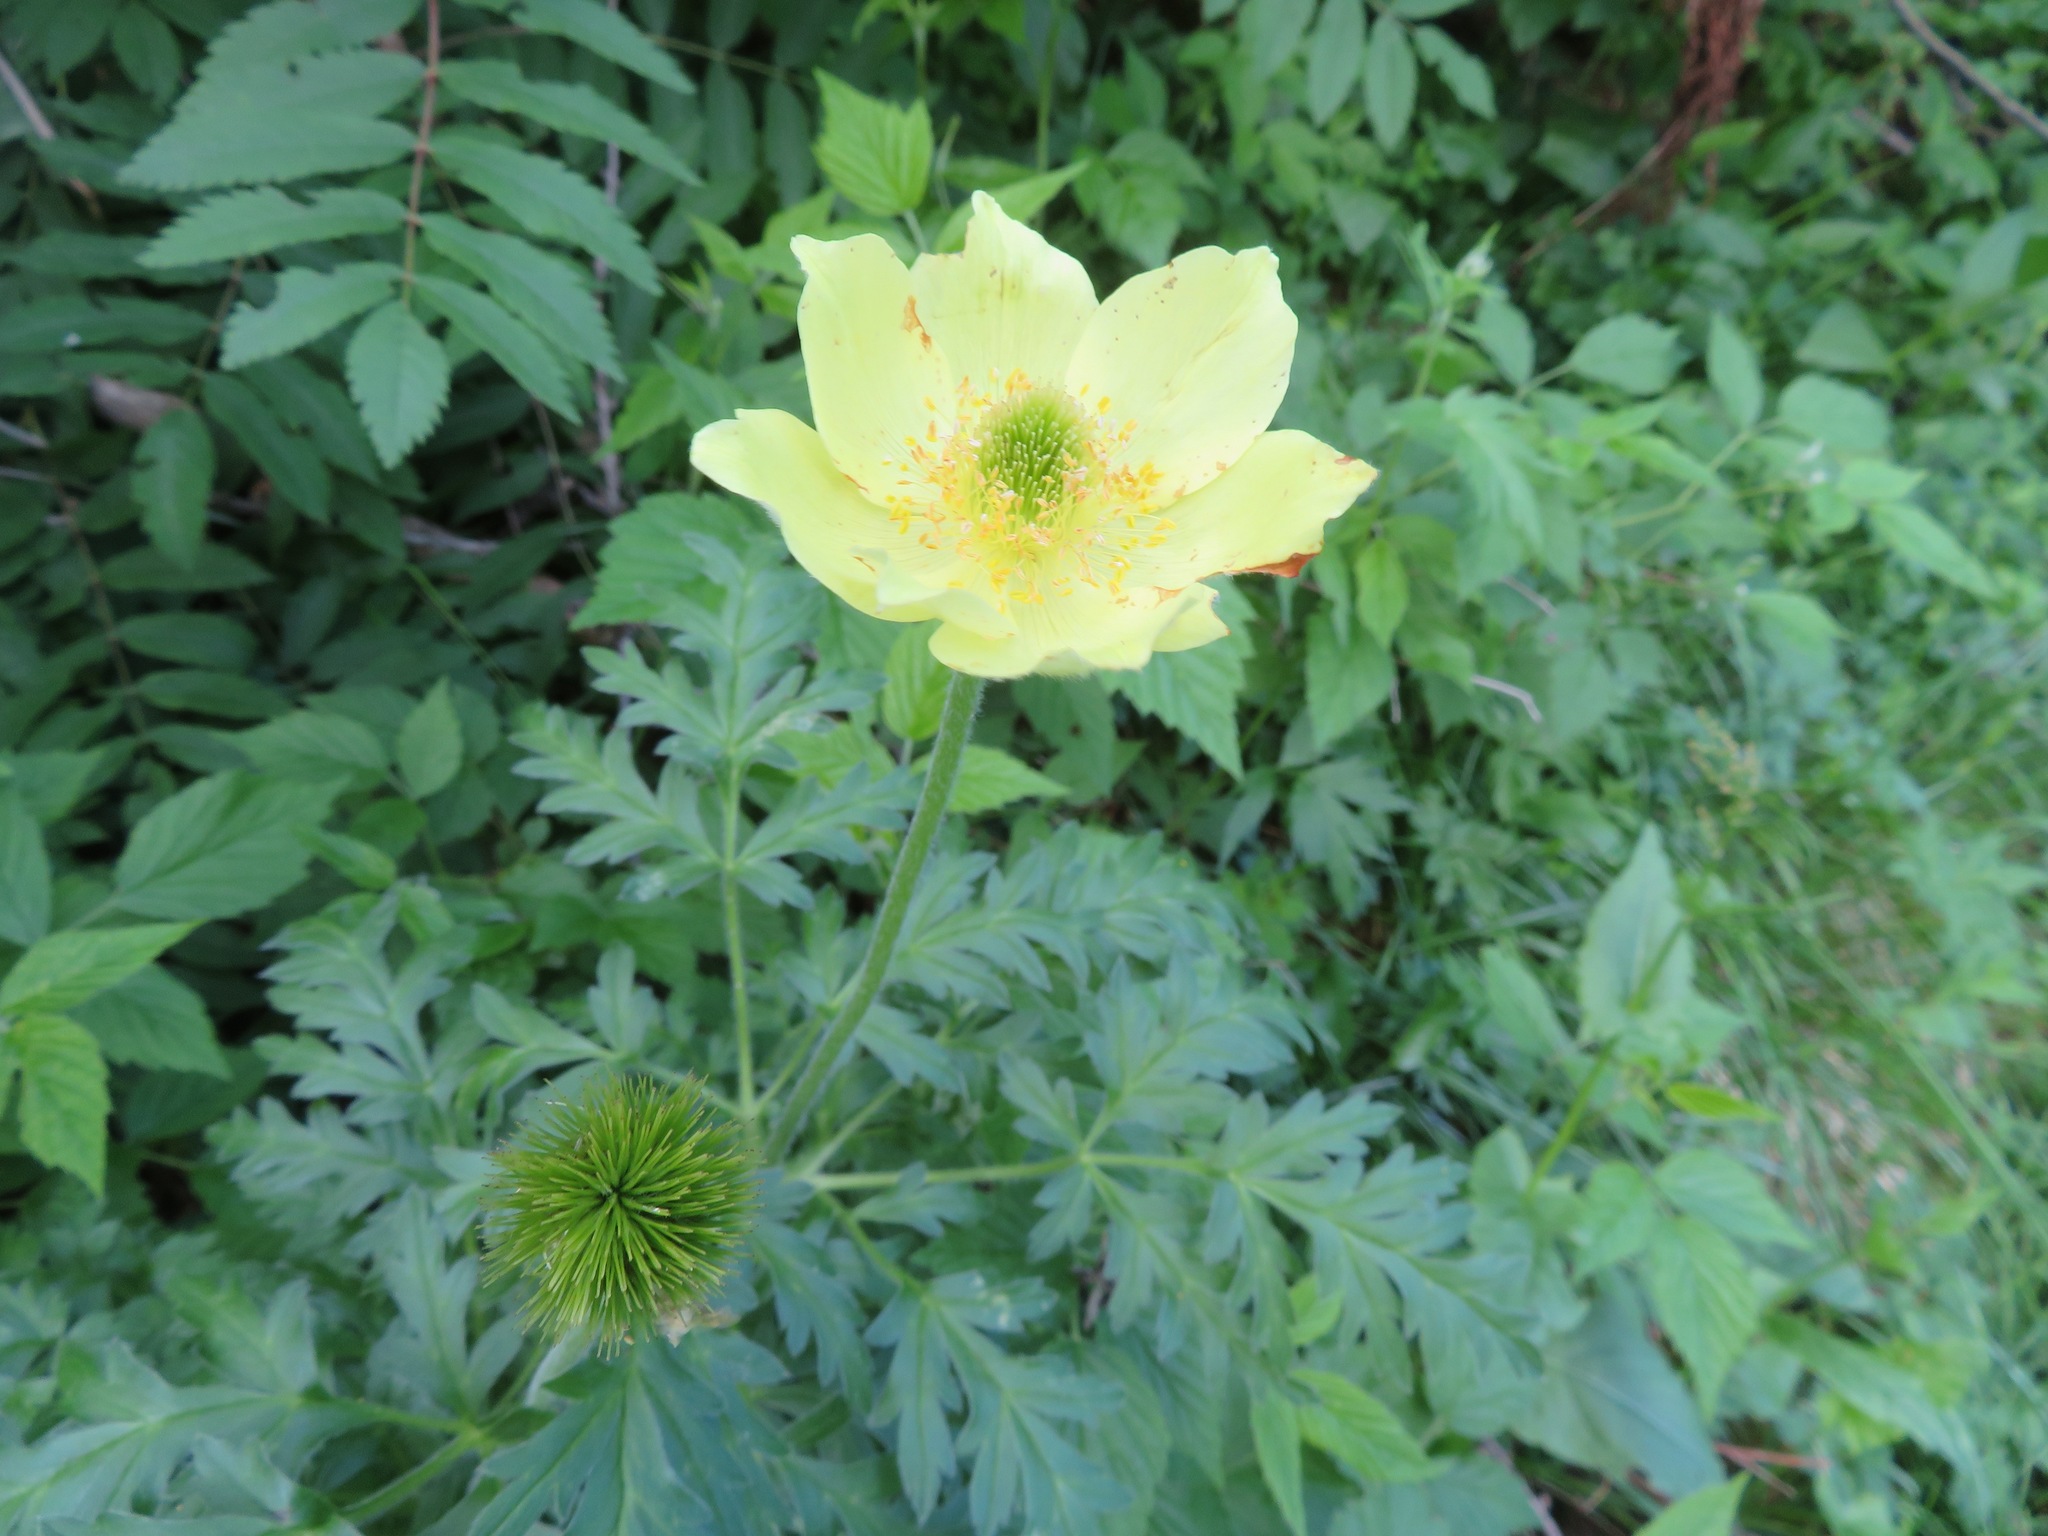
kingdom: Plantae
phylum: Tracheophyta
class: Magnoliopsida
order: Ranunculales
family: Ranunculaceae
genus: Pulsatilla
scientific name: Pulsatilla alpina
